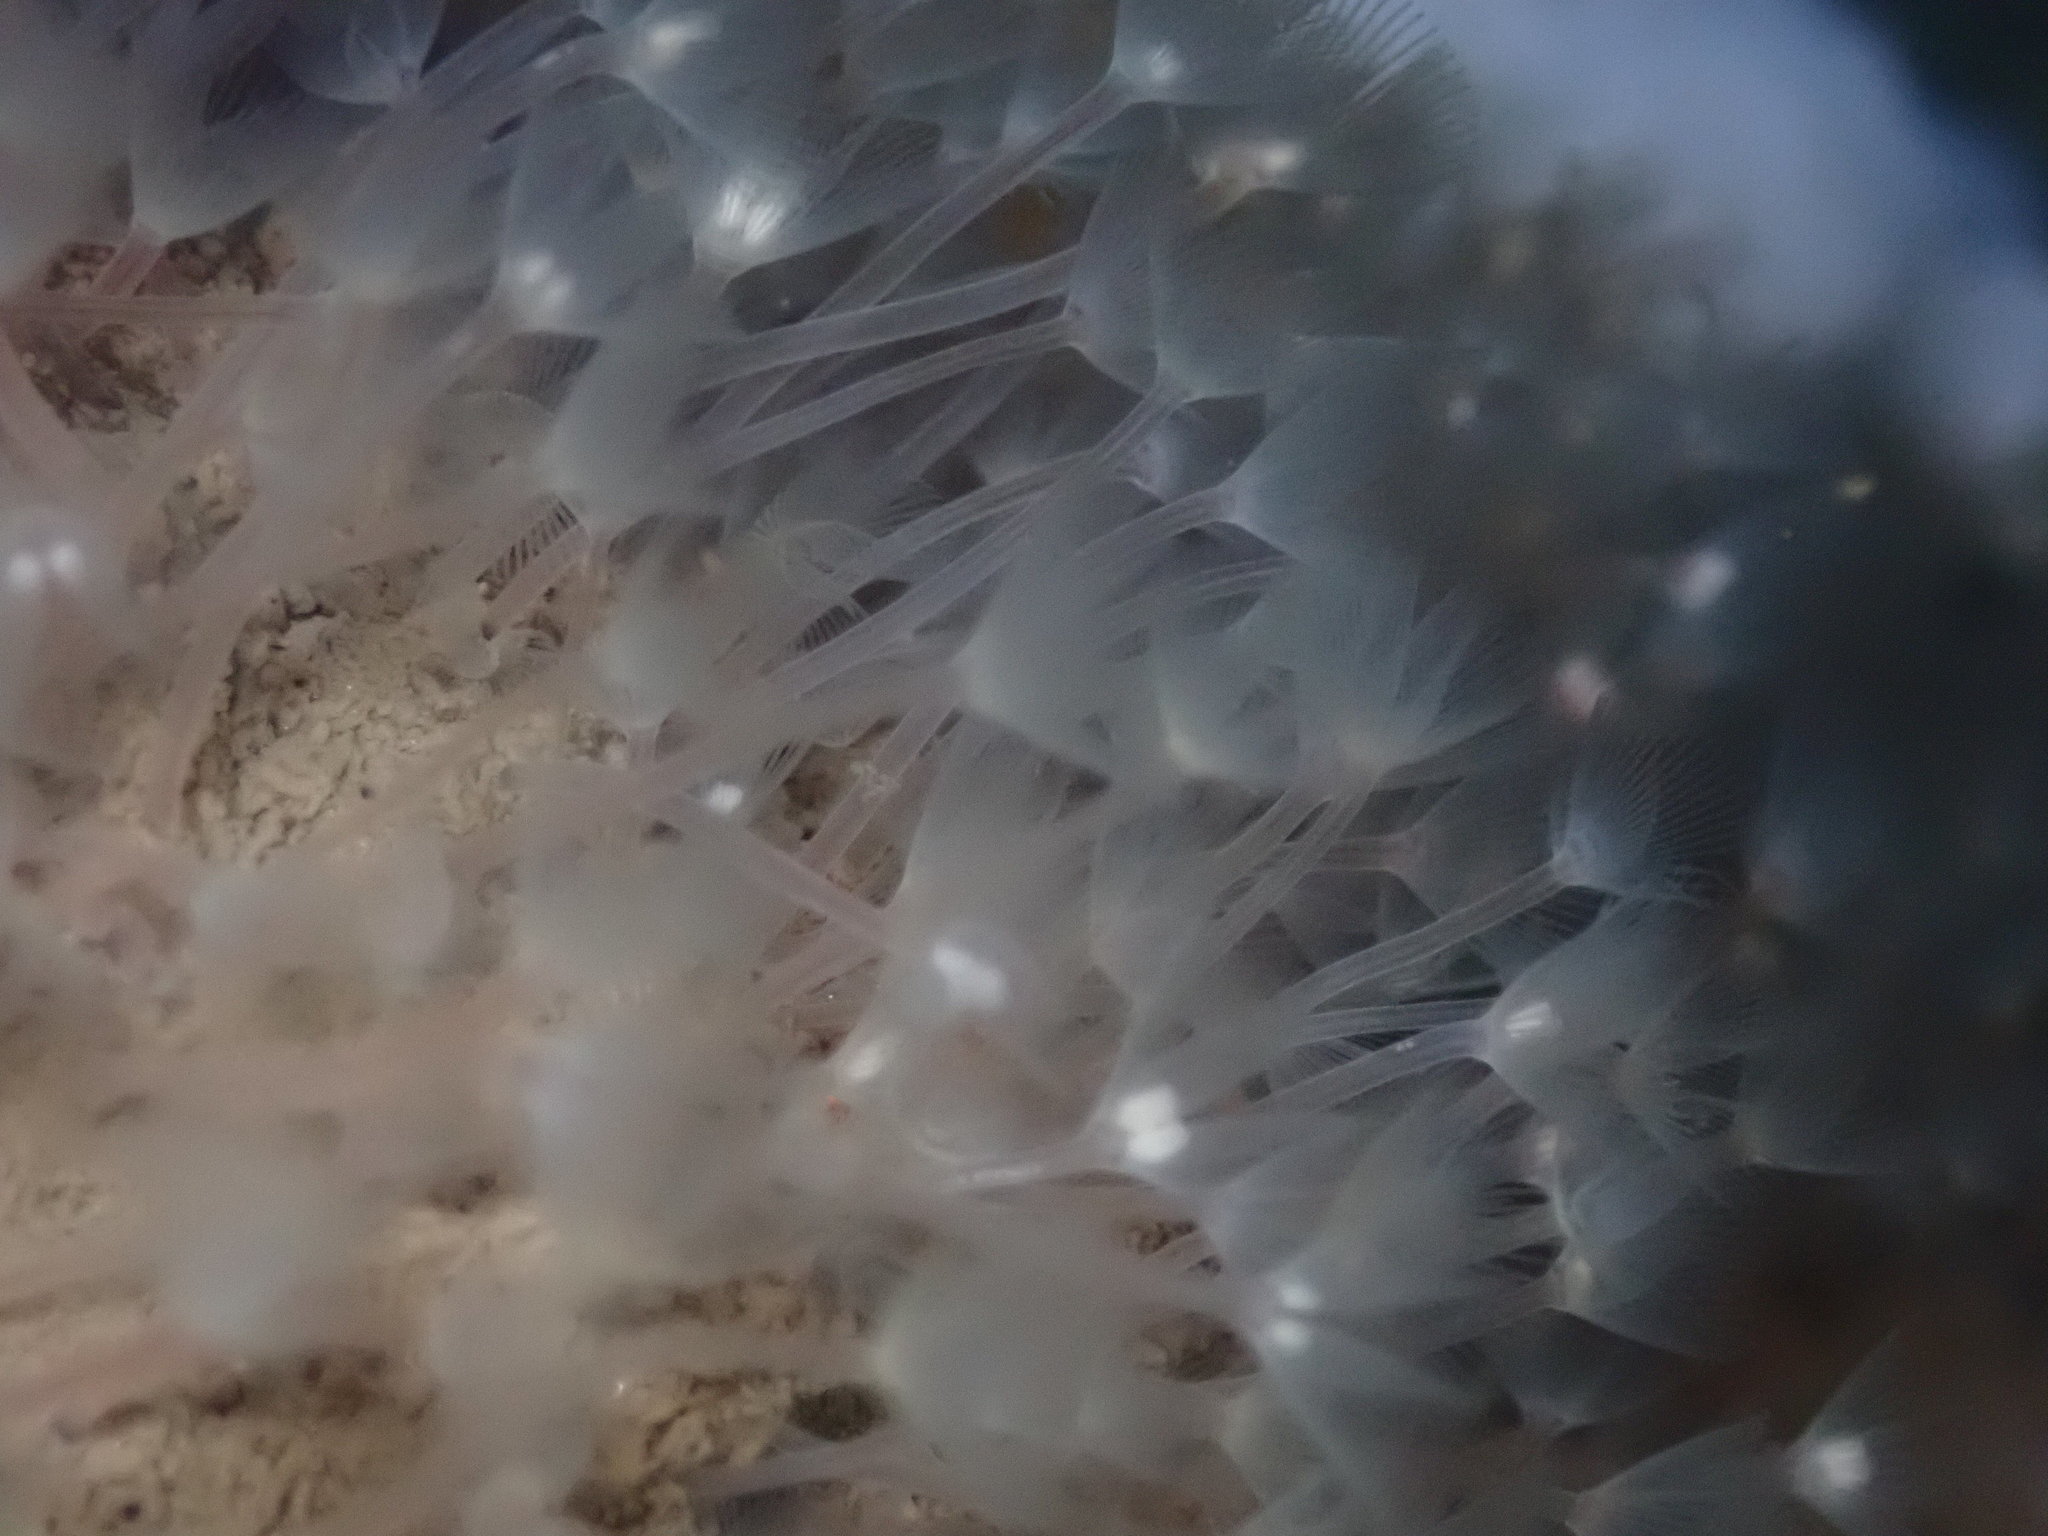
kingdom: Animalia
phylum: Phoronida
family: Phoronidae
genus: Phoronis
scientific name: Phoronis ijimai
